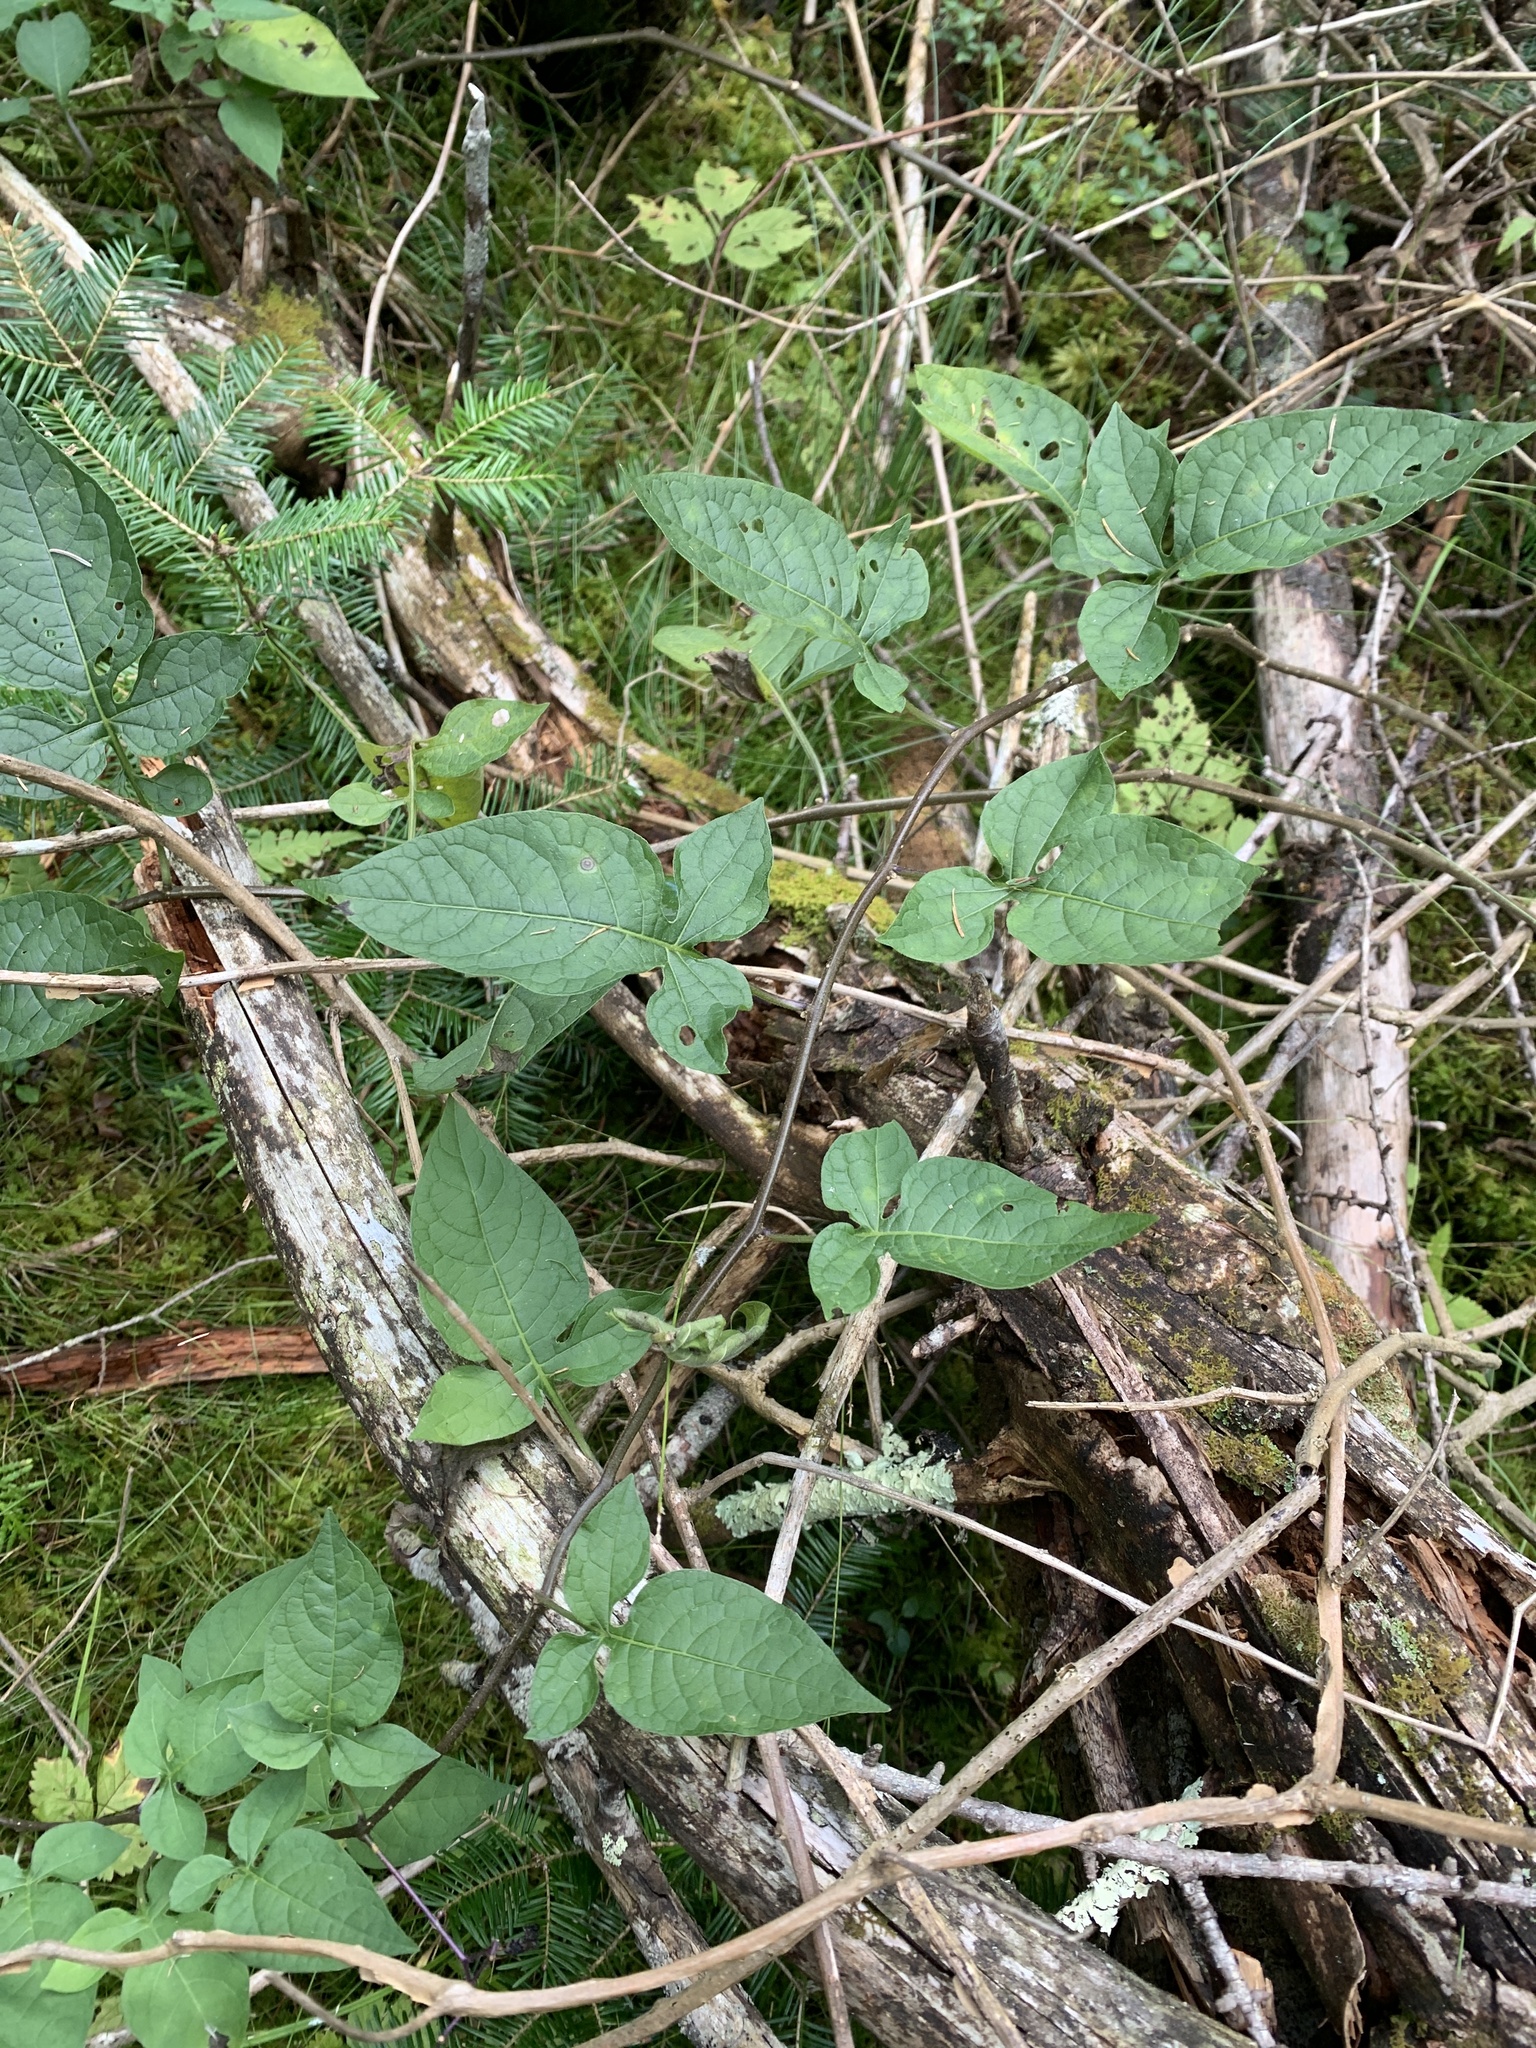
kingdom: Plantae
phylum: Tracheophyta
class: Magnoliopsida
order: Solanales
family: Solanaceae
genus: Solanum
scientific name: Solanum dulcamara
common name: Climbing nightshade
